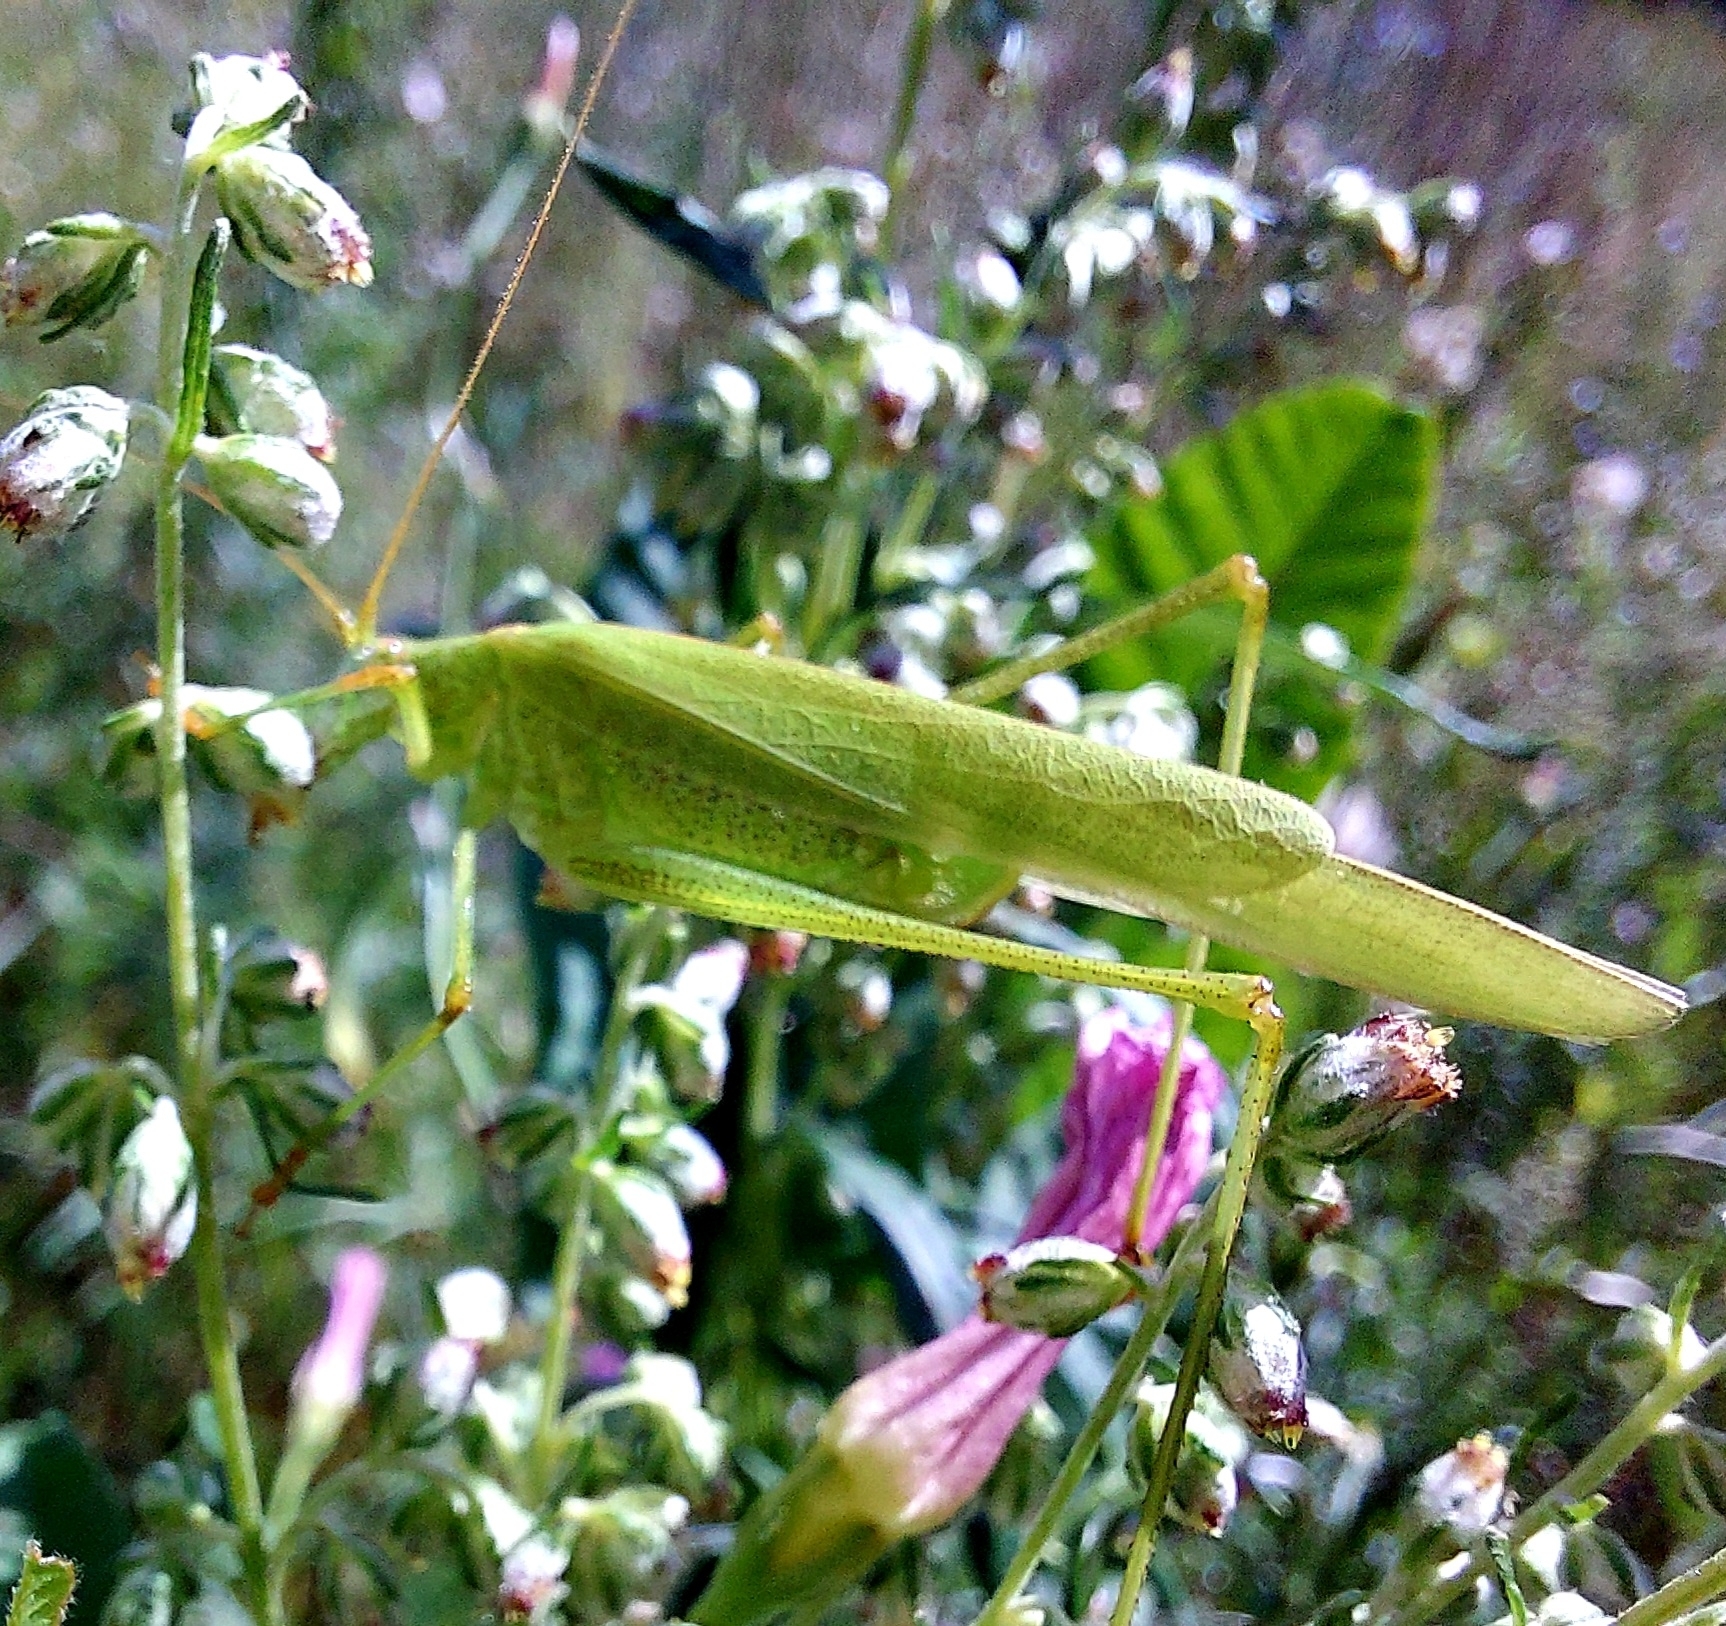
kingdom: Animalia
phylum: Arthropoda
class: Insecta
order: Orthoptera
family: Tettigoniidae
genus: Phaneroptera
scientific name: Phaneroptera falcata
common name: Sickle-bearing bush-cricket
